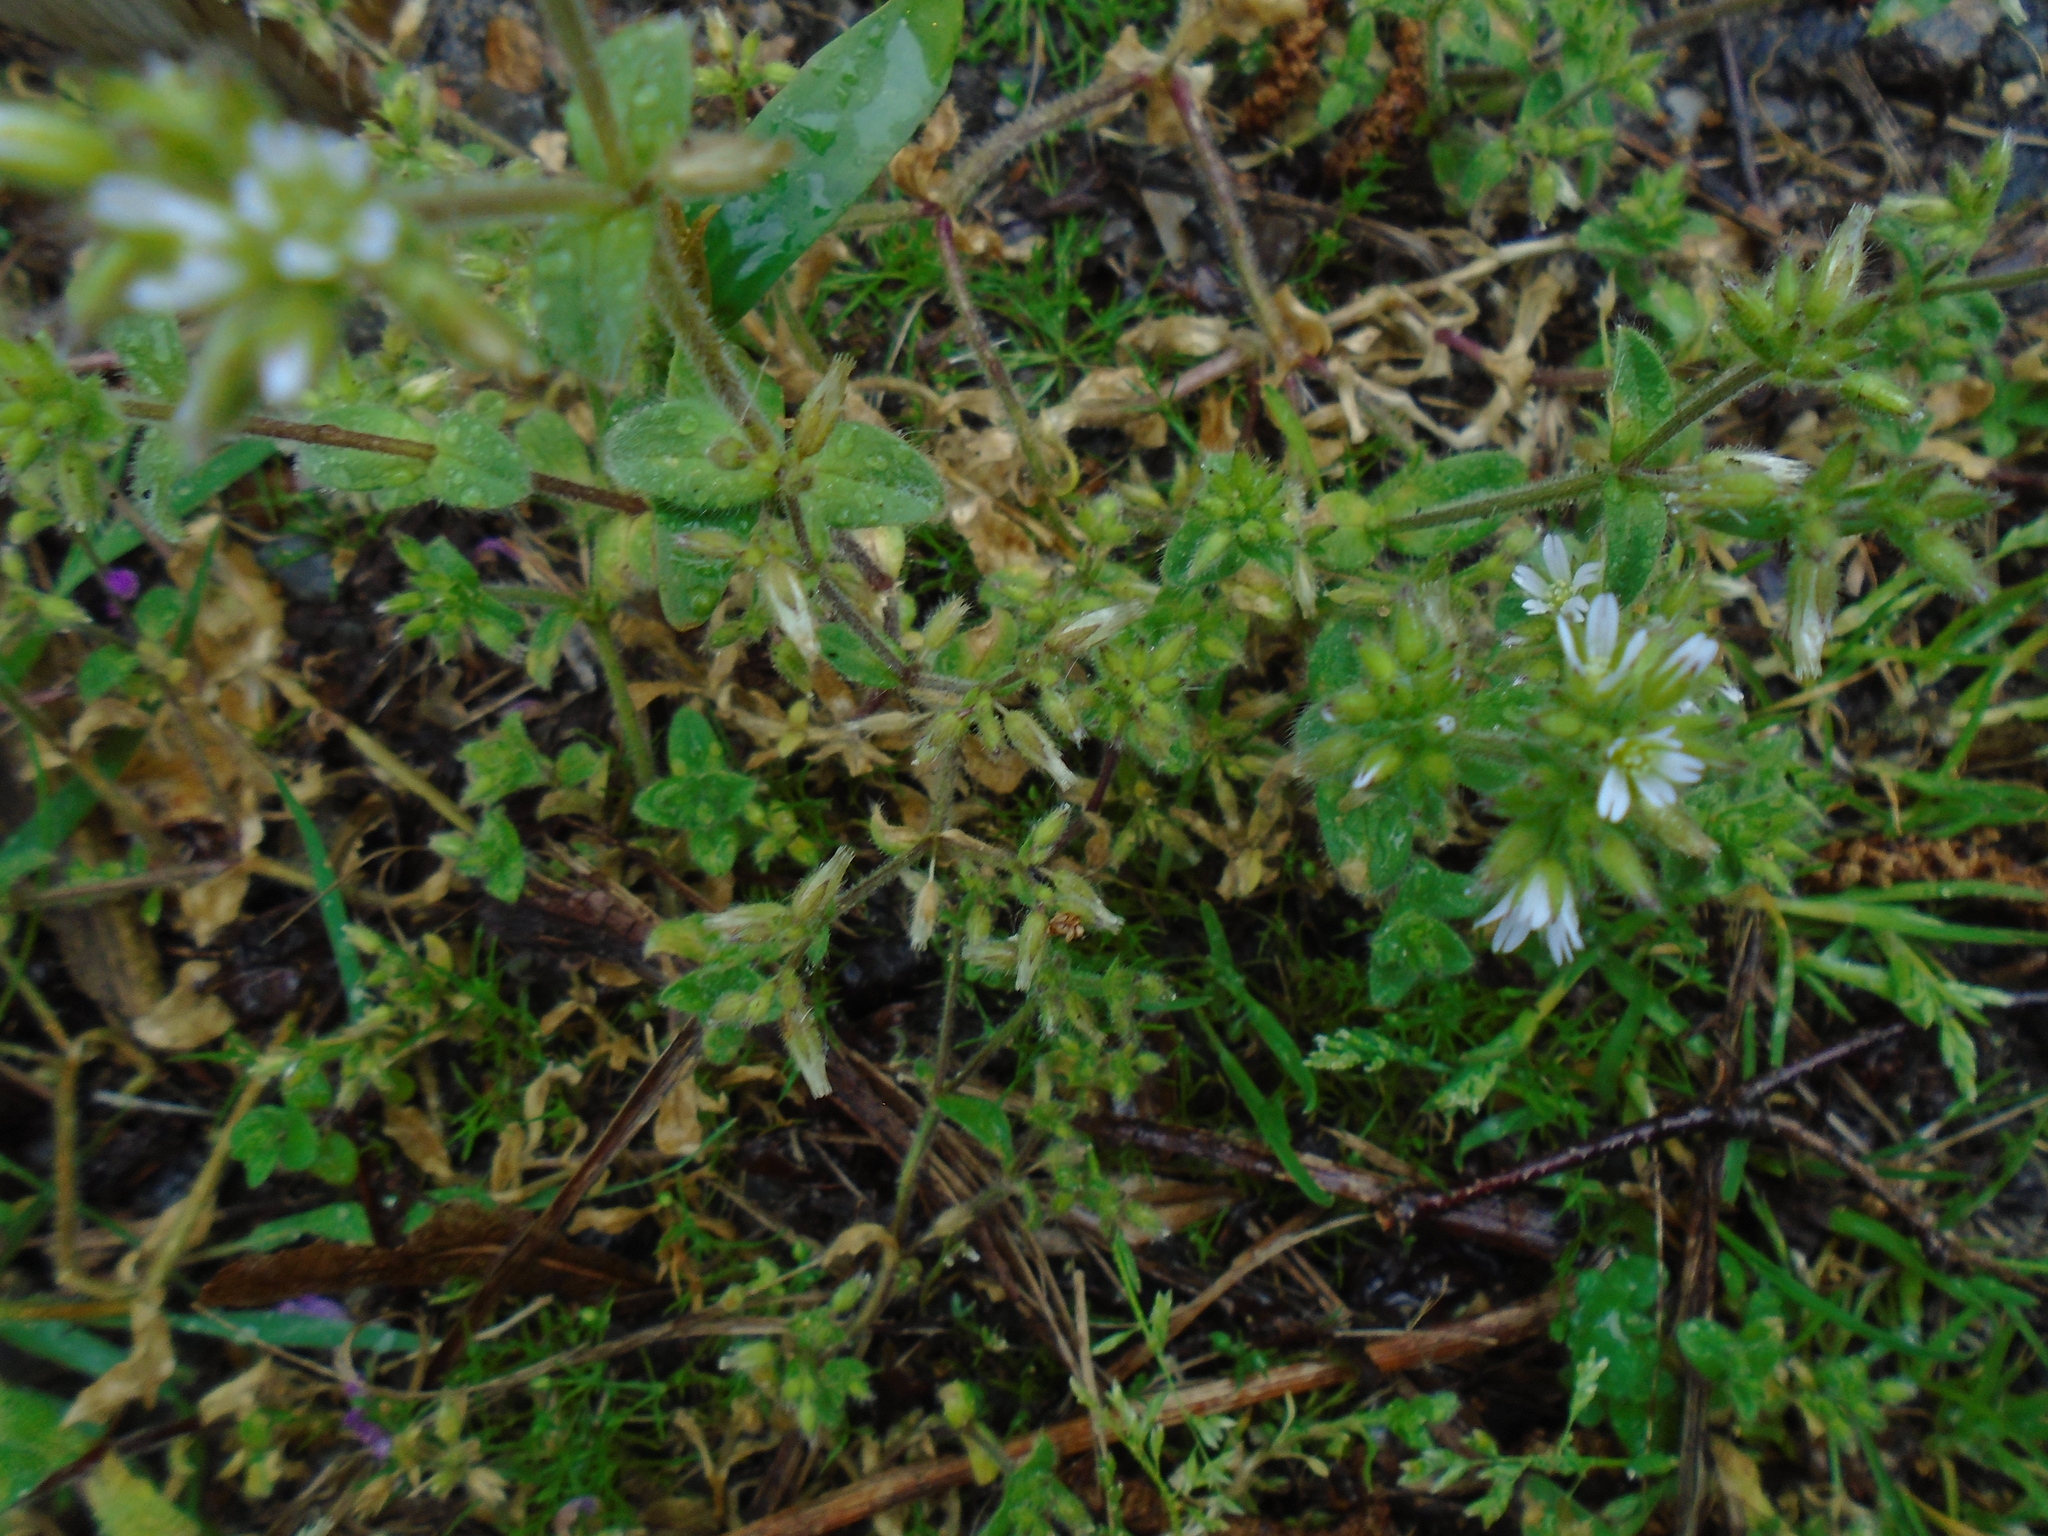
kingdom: Plantae
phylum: Tracheophyta
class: Magnoliopsida
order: Caryophyllales
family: Caryophyllaceae
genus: Cerastium
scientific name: Cerastium glomeratum
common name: Sticky chickweed
